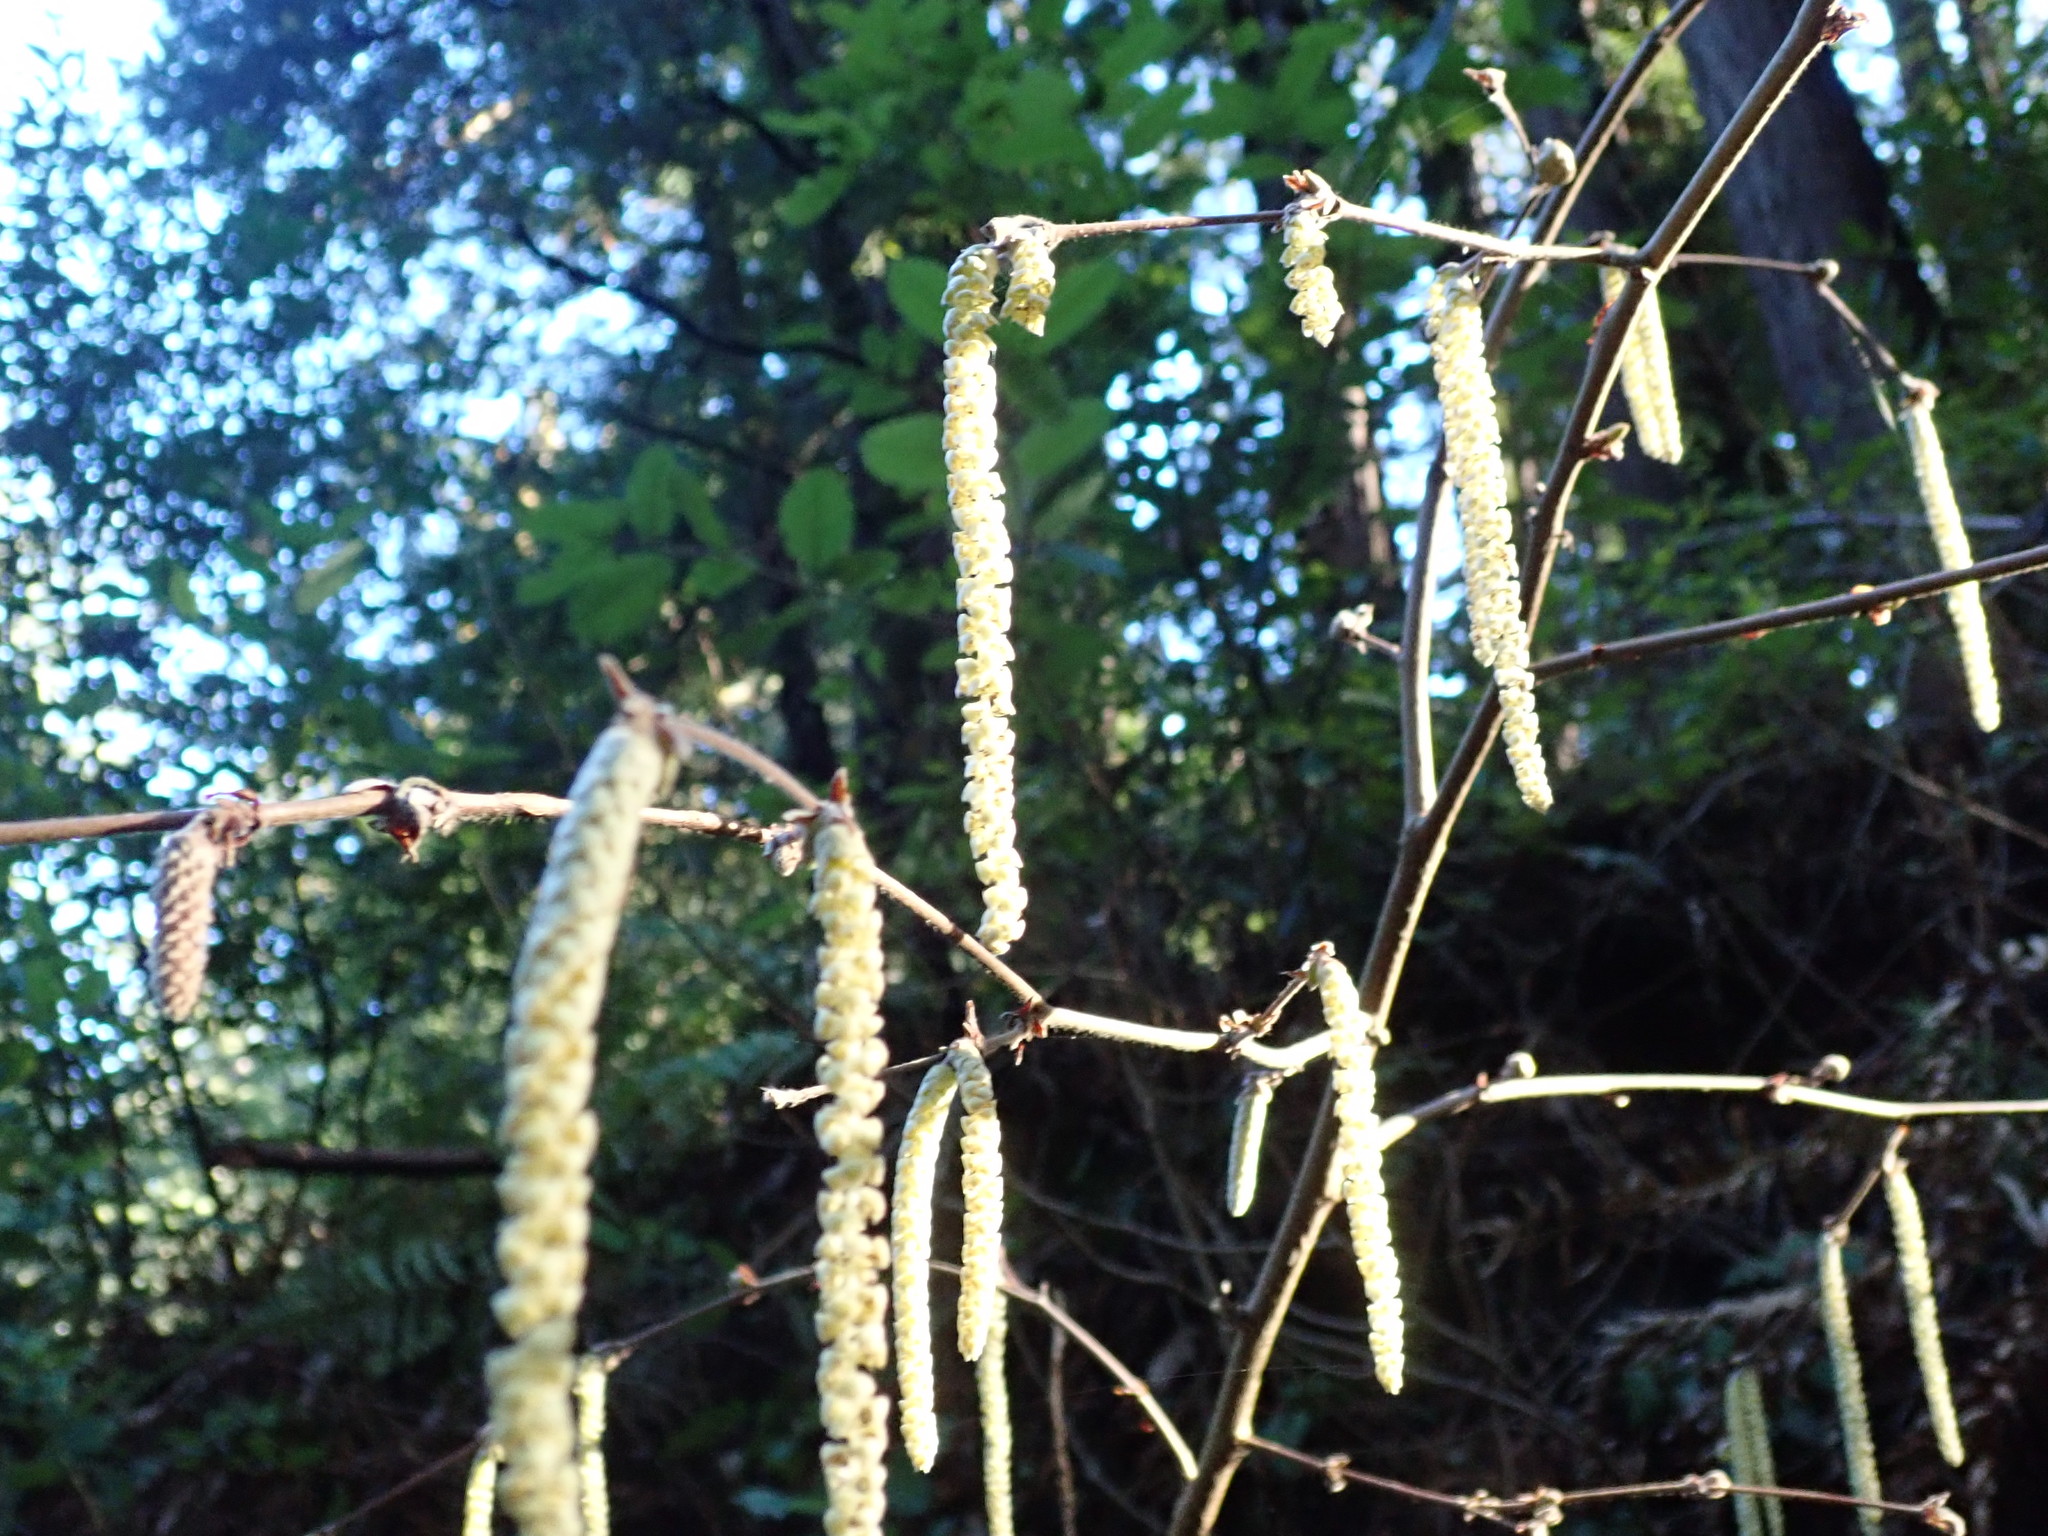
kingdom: Plantae
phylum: Tracheophyta
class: Magnoliopsida
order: Fagales
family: Betulaceae
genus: Corylus
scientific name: Corylus cornuta
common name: Beaked hazel
